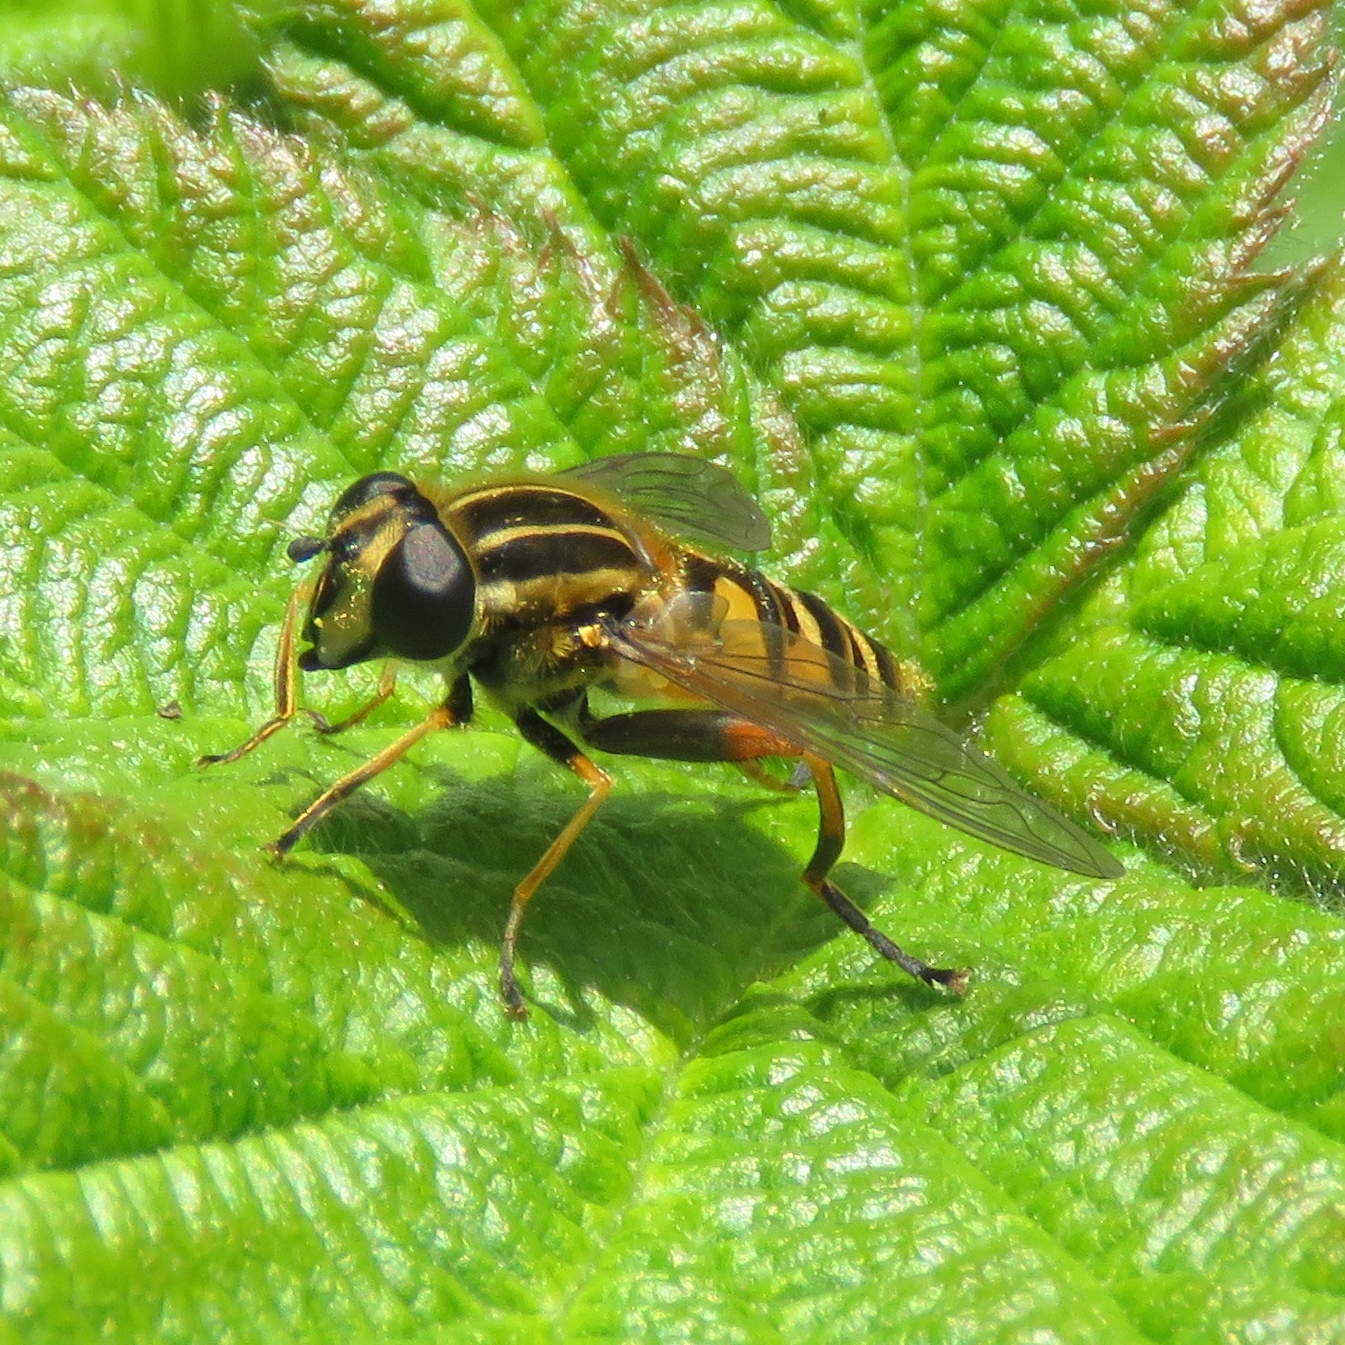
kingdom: Animalia
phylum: Arthropoda
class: Insecta
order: Diptera
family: Syrphidae
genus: Helophilus
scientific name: Helophilus pendulus
